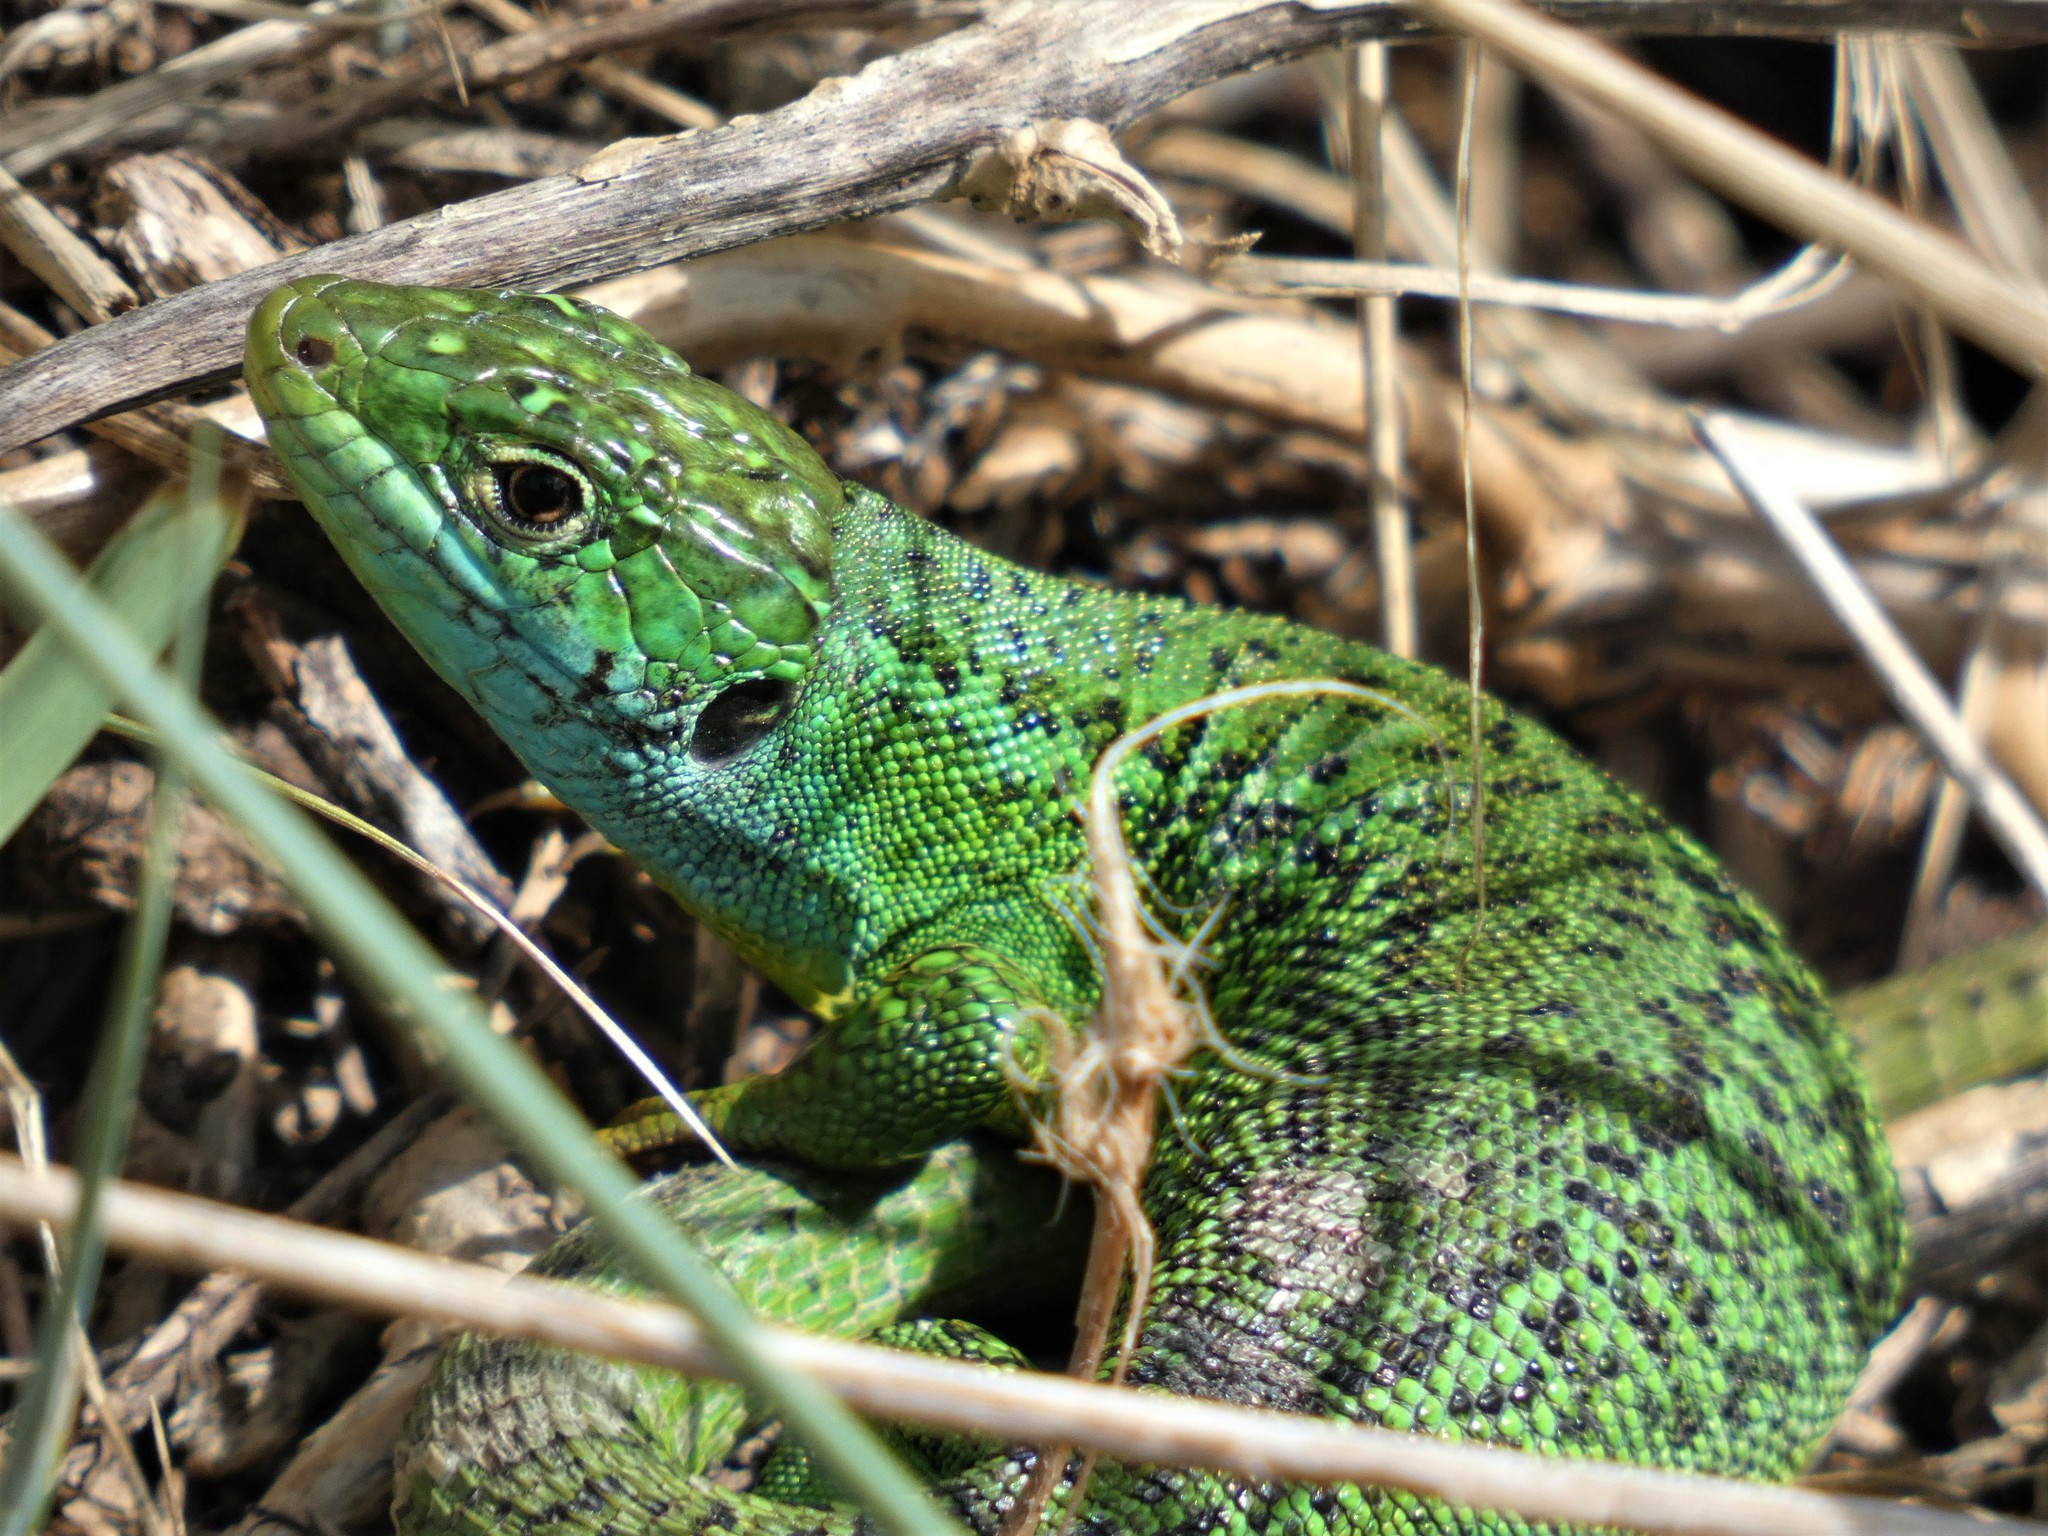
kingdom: Animalia
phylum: Chordata
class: Squamata
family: Lacertidae
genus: Lacerta
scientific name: Lacerta bilineata
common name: Western green lizard
